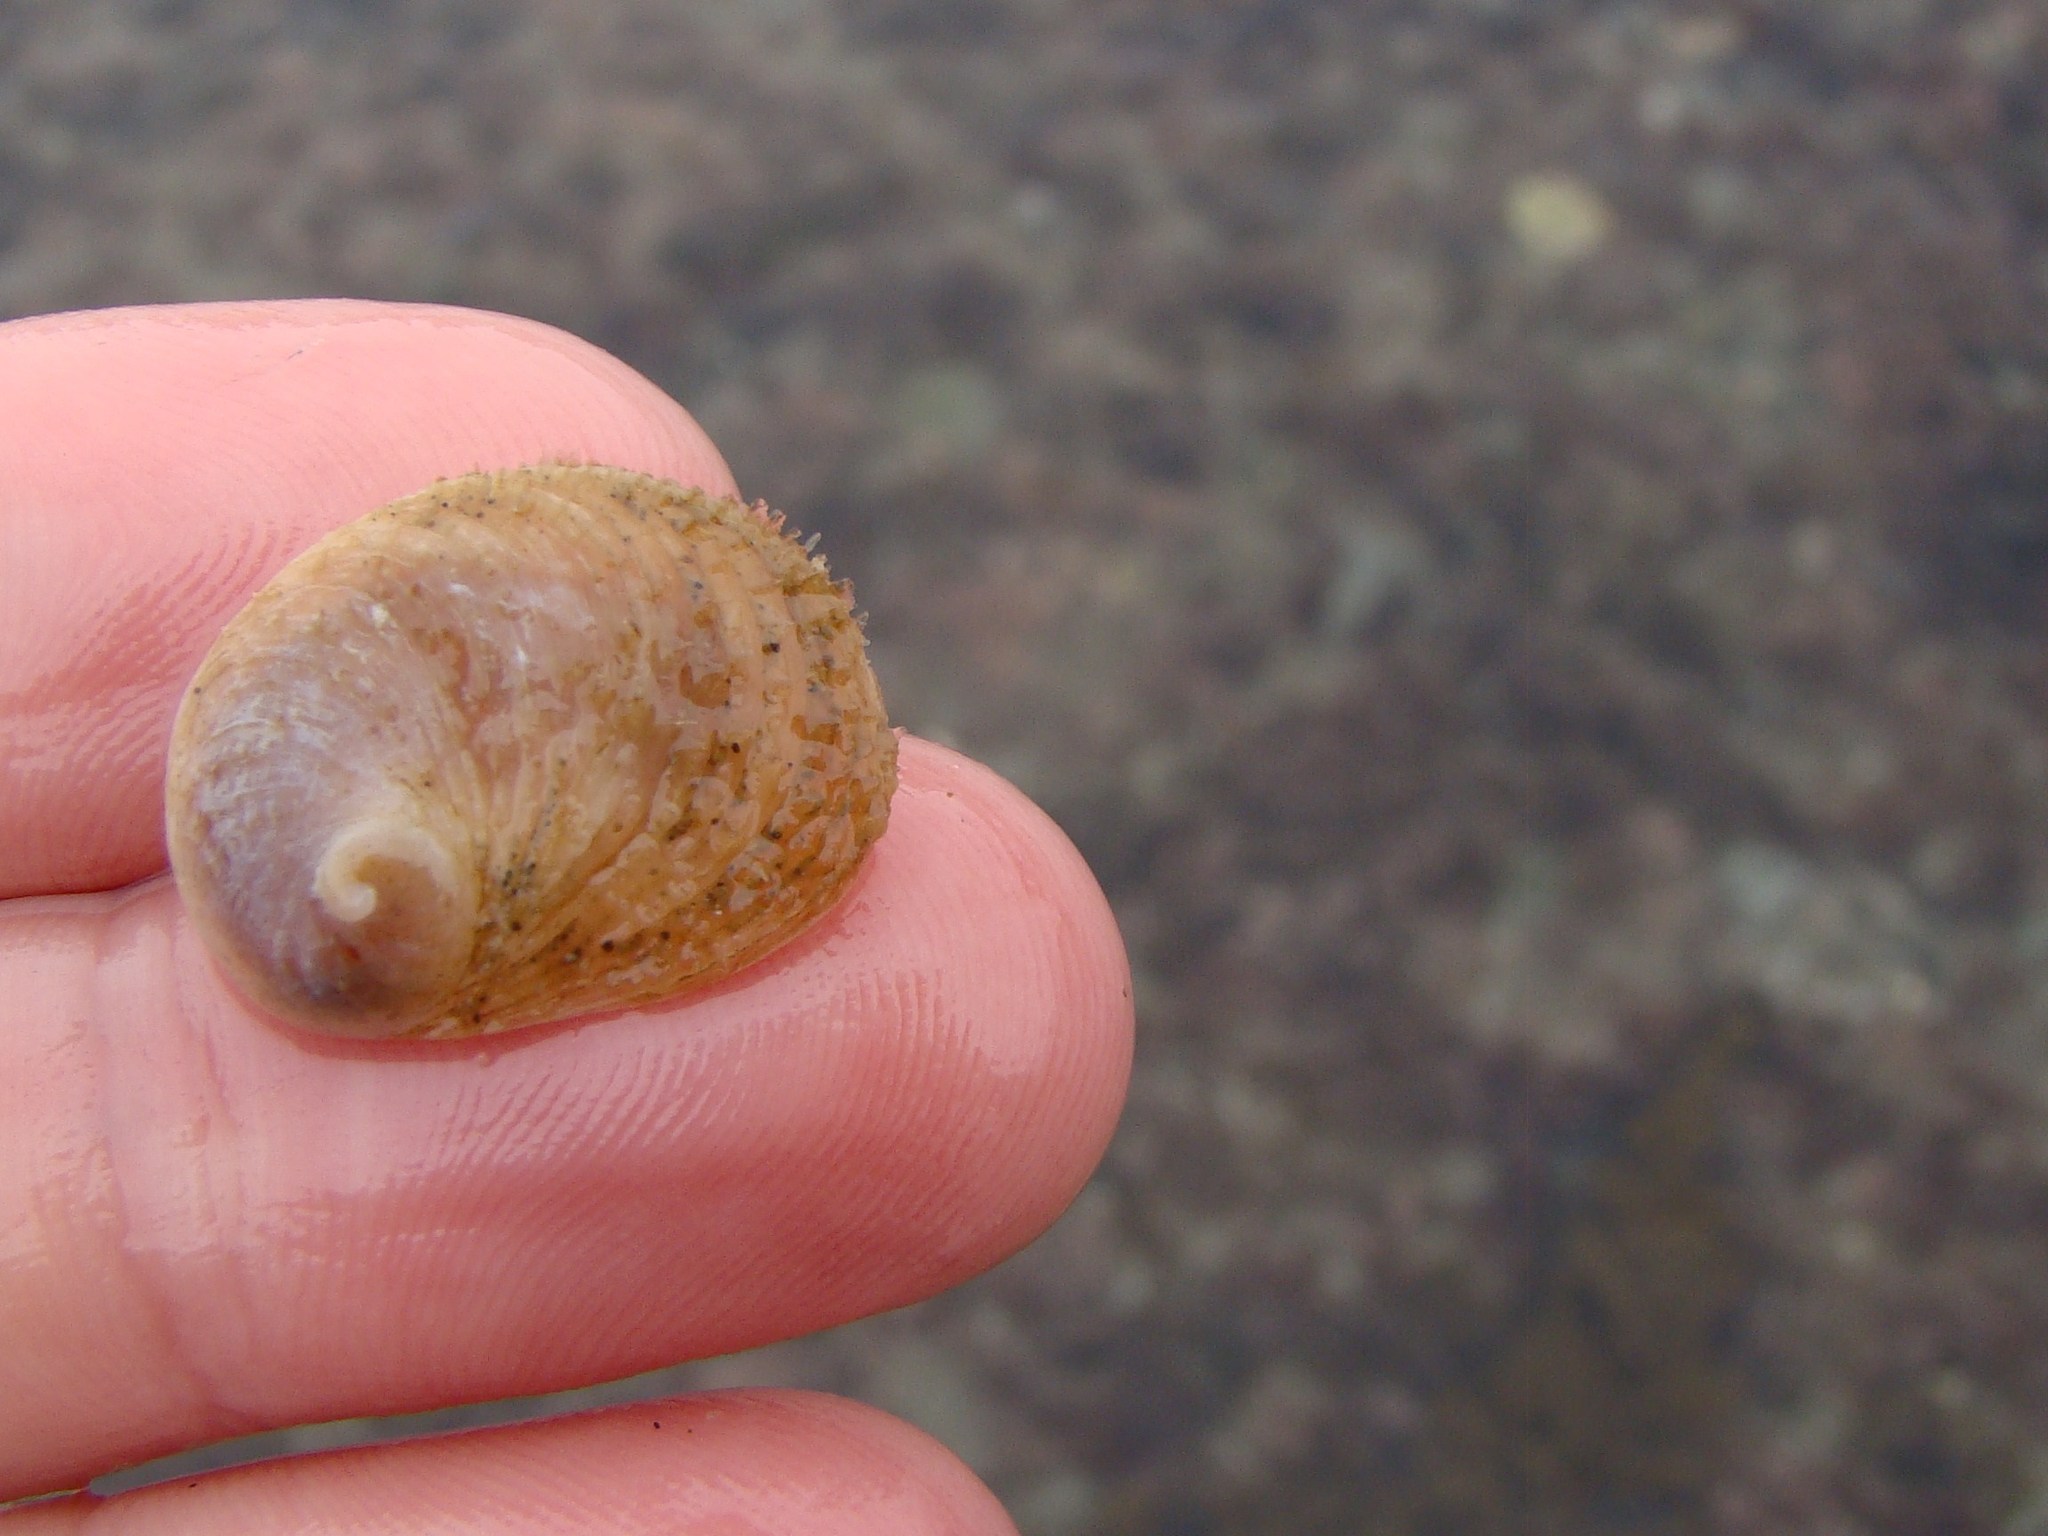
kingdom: Animalia
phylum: Mollusca
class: Gastropoda
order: Littorinimorpha
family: Calyptraeidae
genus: Sigapatella
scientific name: Sigapatella novaezelandiae
